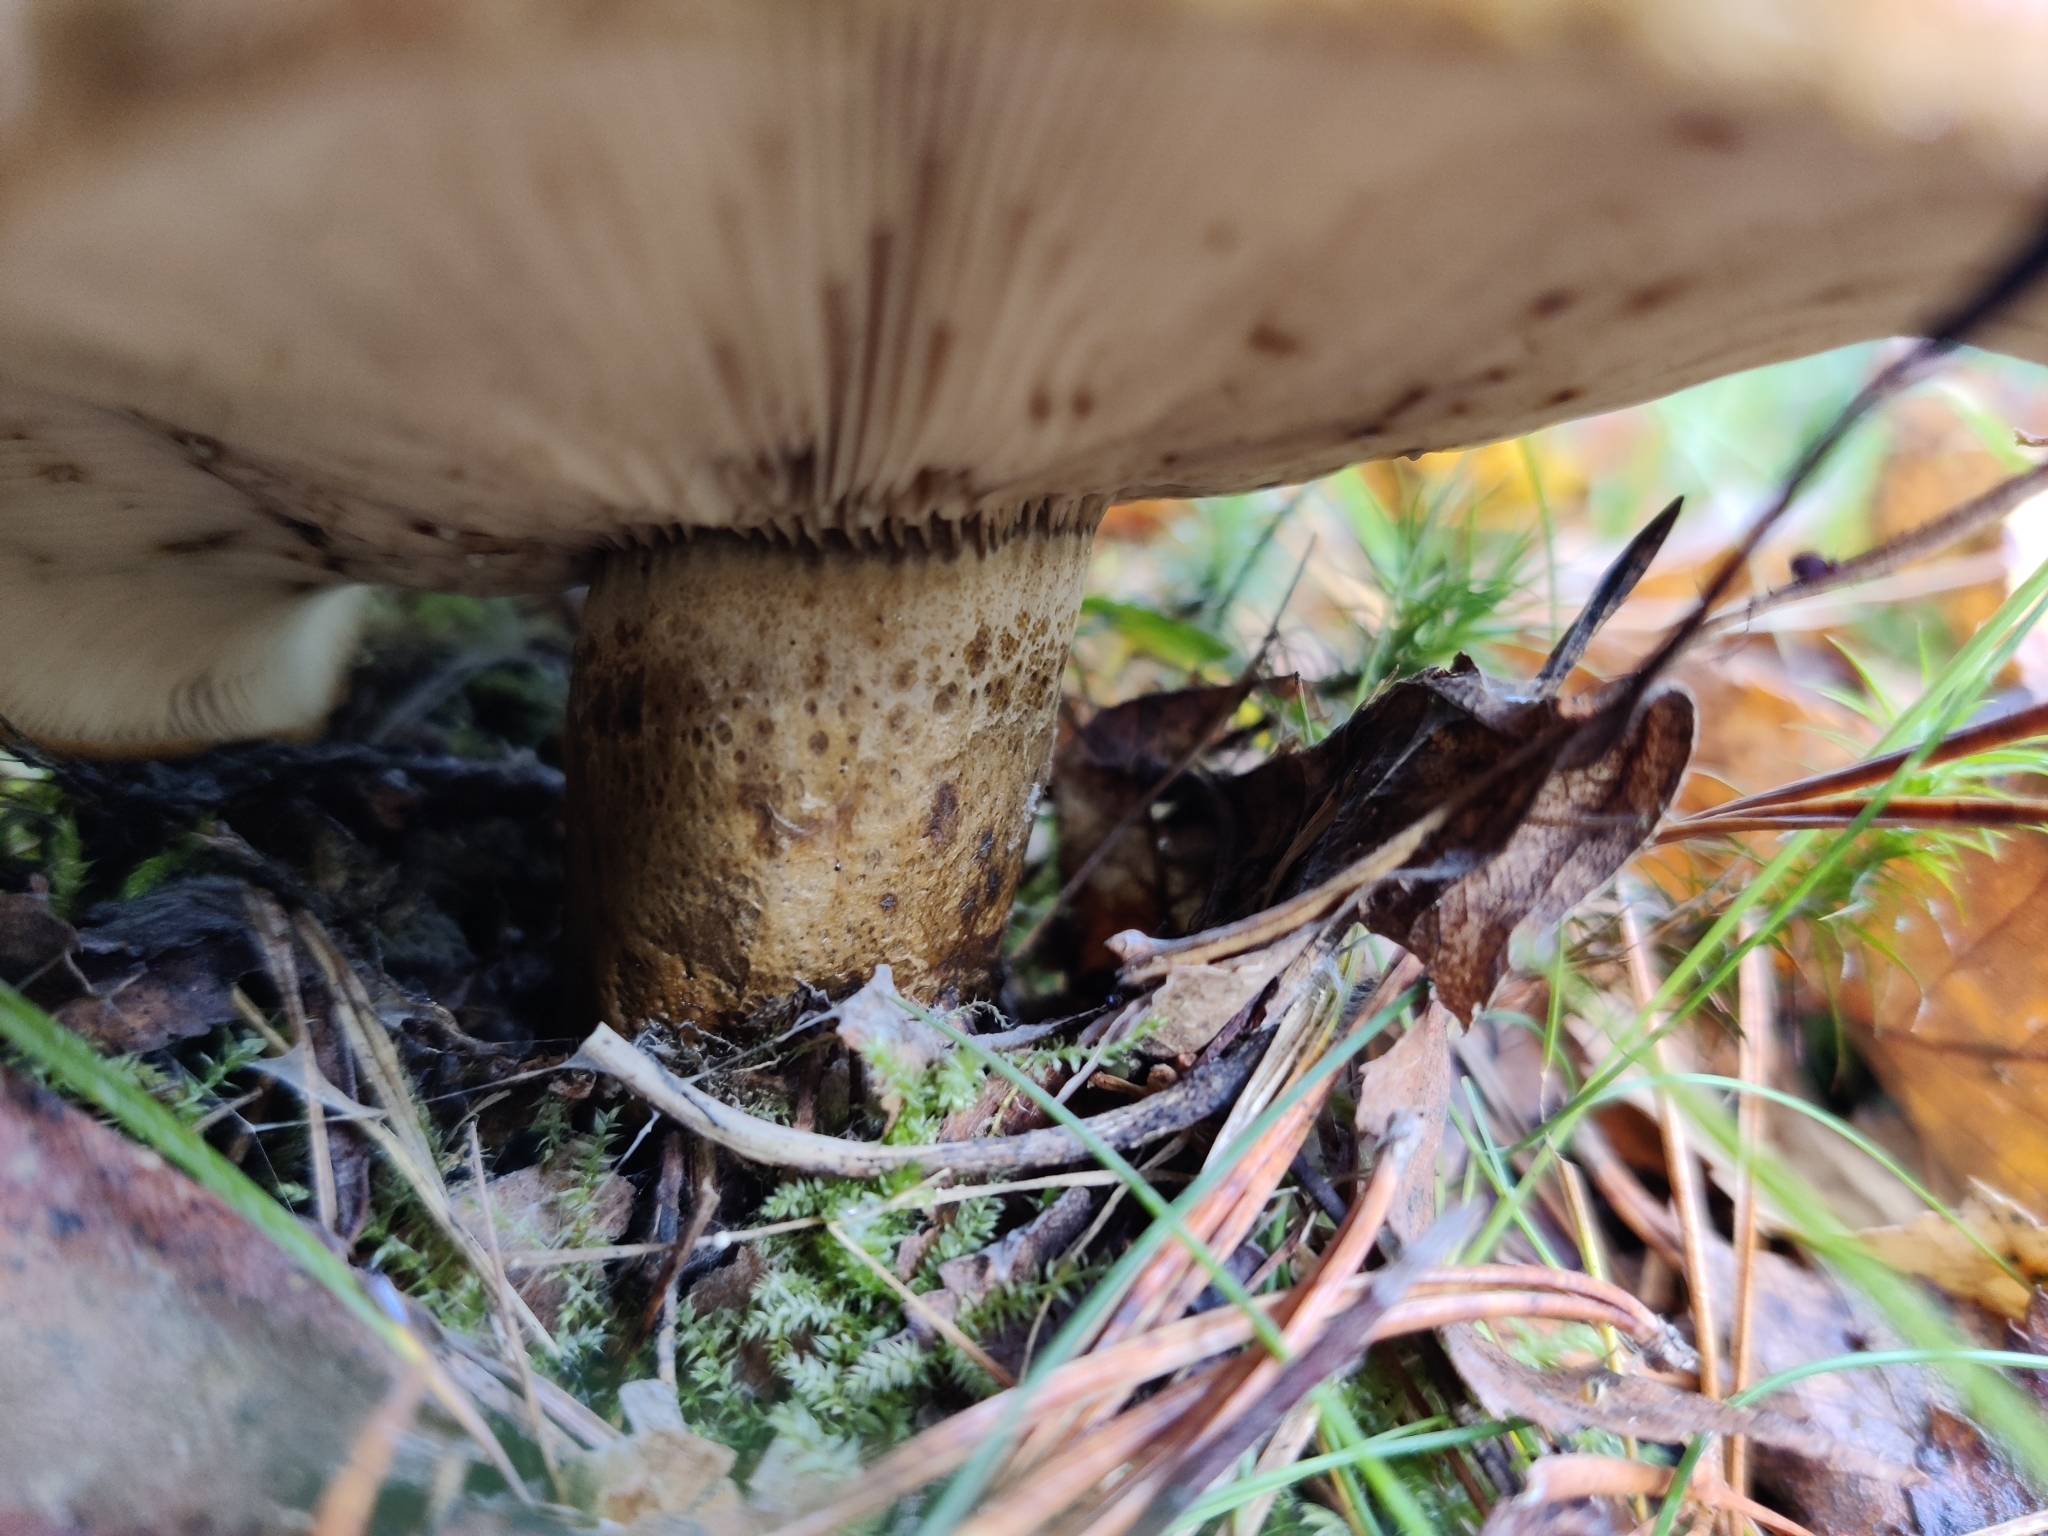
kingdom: Fungi
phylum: Basidiomycota
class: Agaricomycetes
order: Russulales
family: Russulaceae
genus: Lactarius
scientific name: Lactarius turpis
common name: Ugly milk-cap
